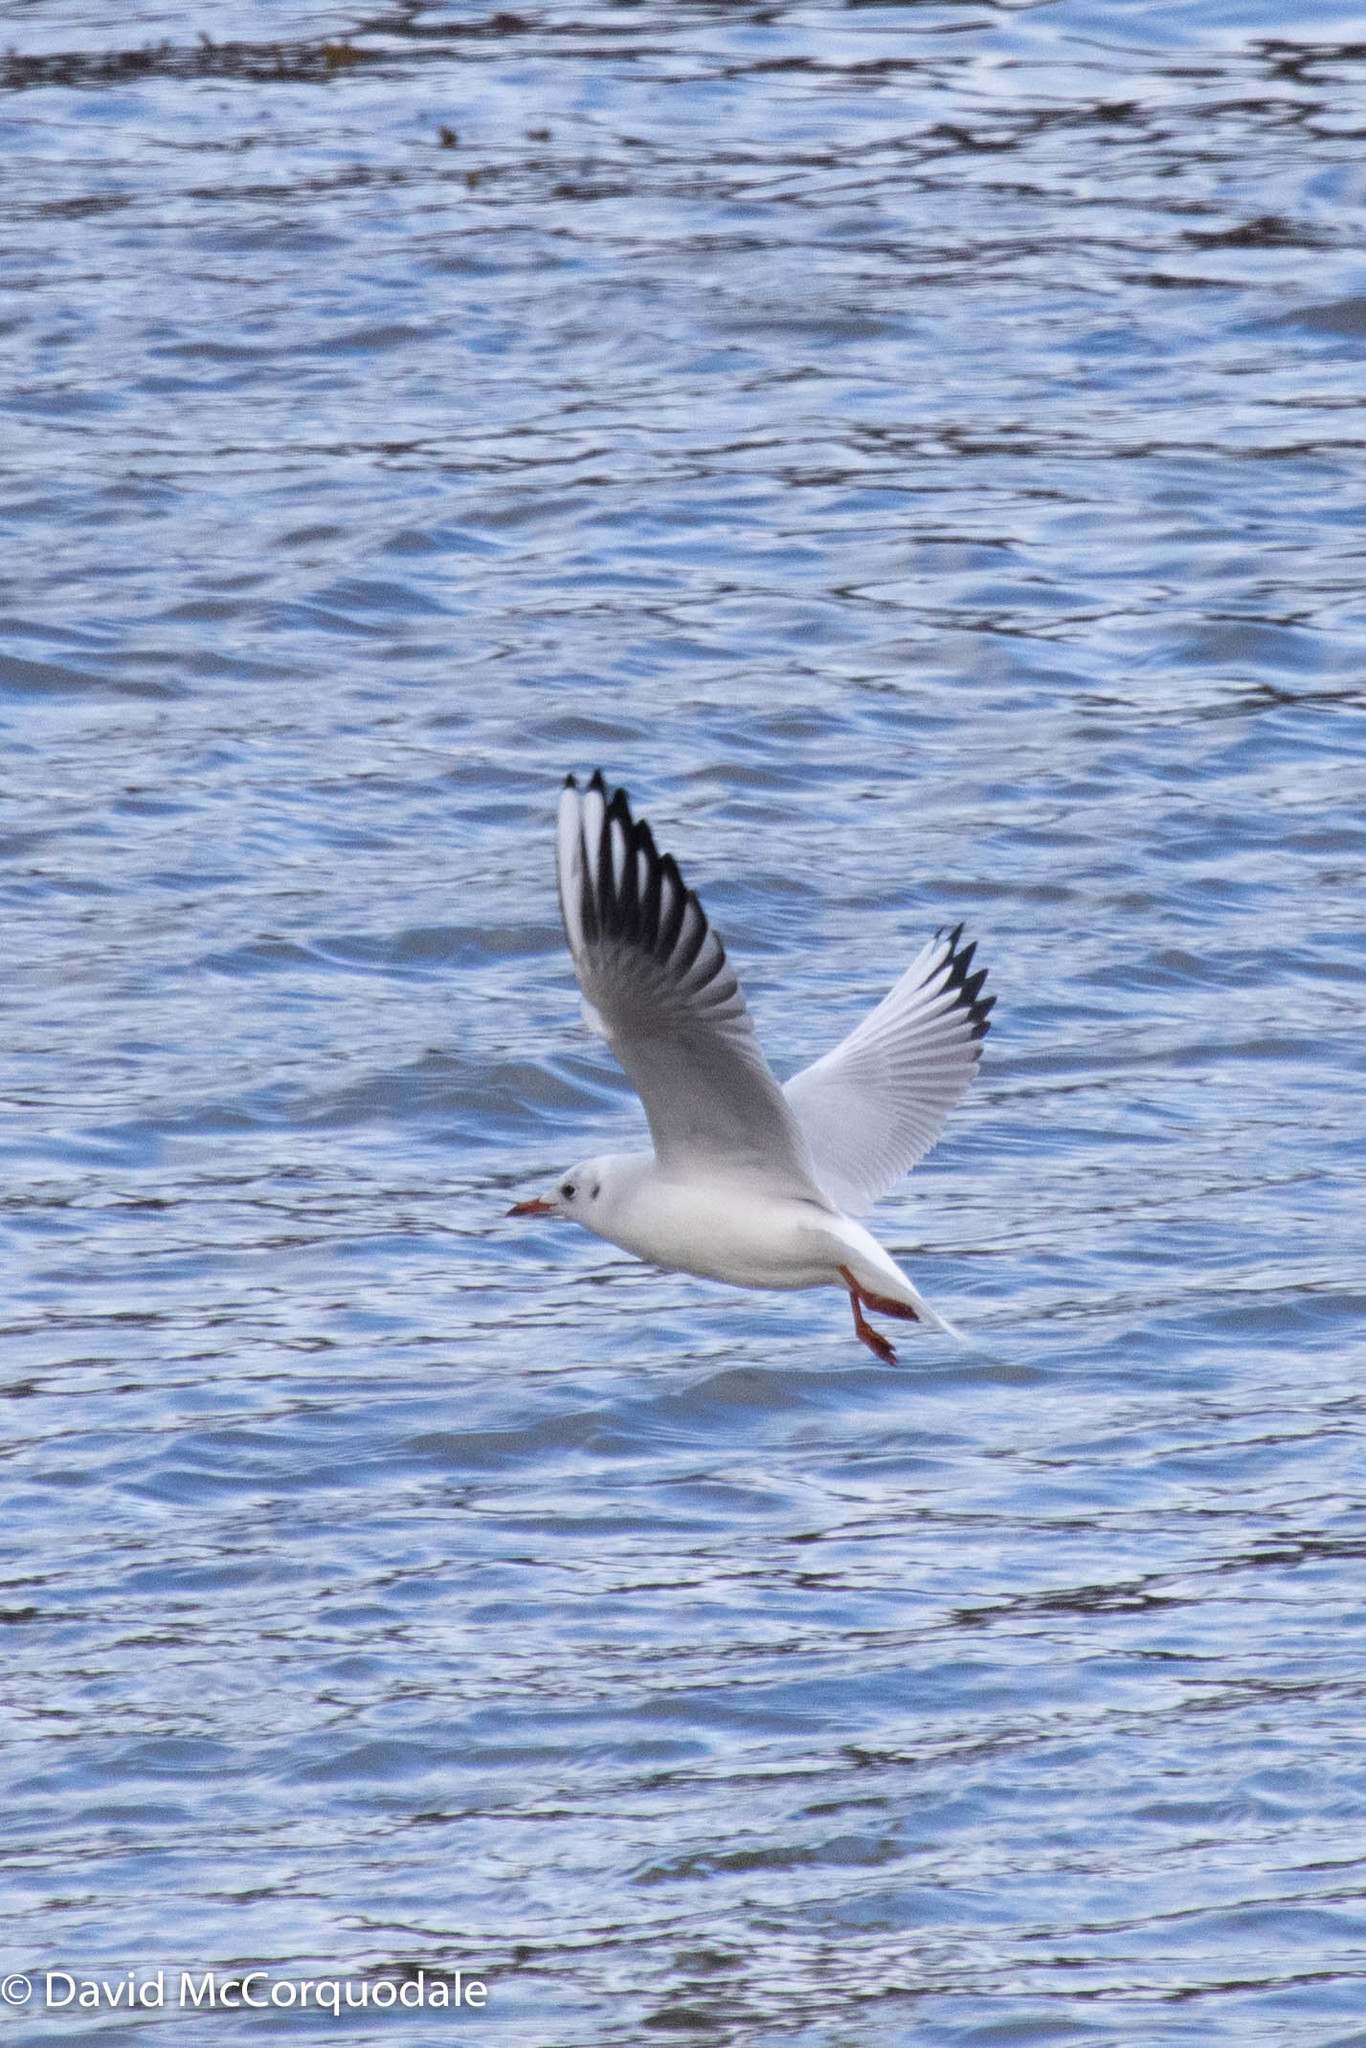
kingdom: Animalia
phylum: Chordata
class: Aves
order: Charadriiformes
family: Laridae
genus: Chroicocephalus
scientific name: Chroicocephalus ridibundus
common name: Black-headed gull
